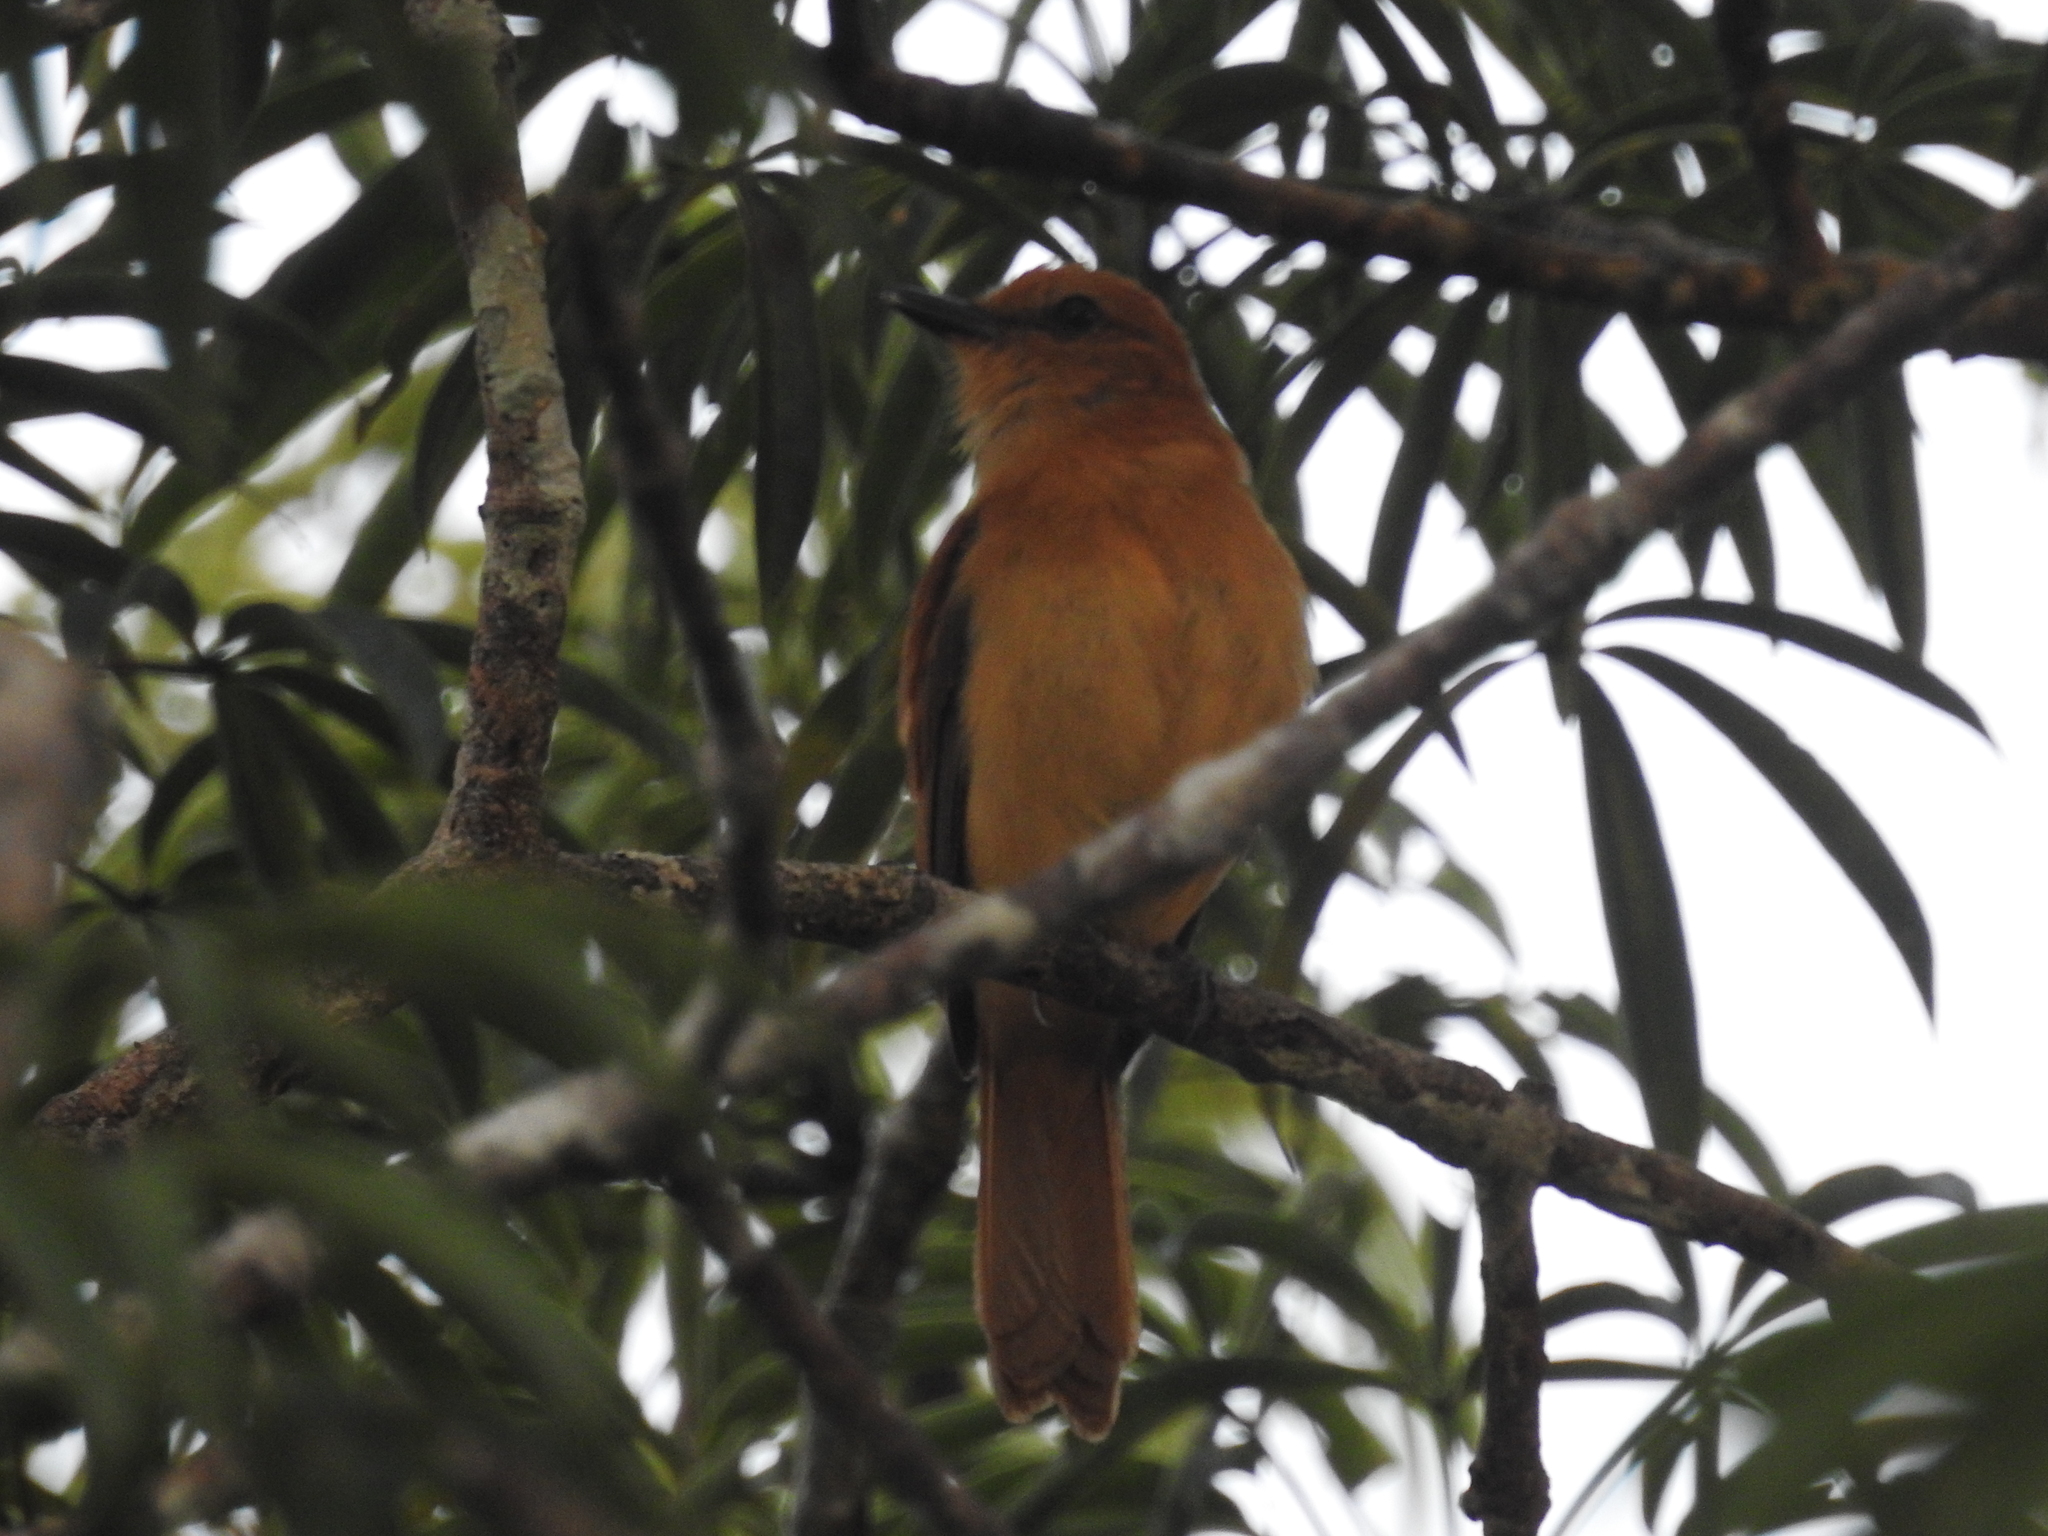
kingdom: Animalia
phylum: Chordata
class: Aves
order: Passeriformes
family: Tyrannidae
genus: Attila
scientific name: Attila cinnamomeus
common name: Cinnamon attila
